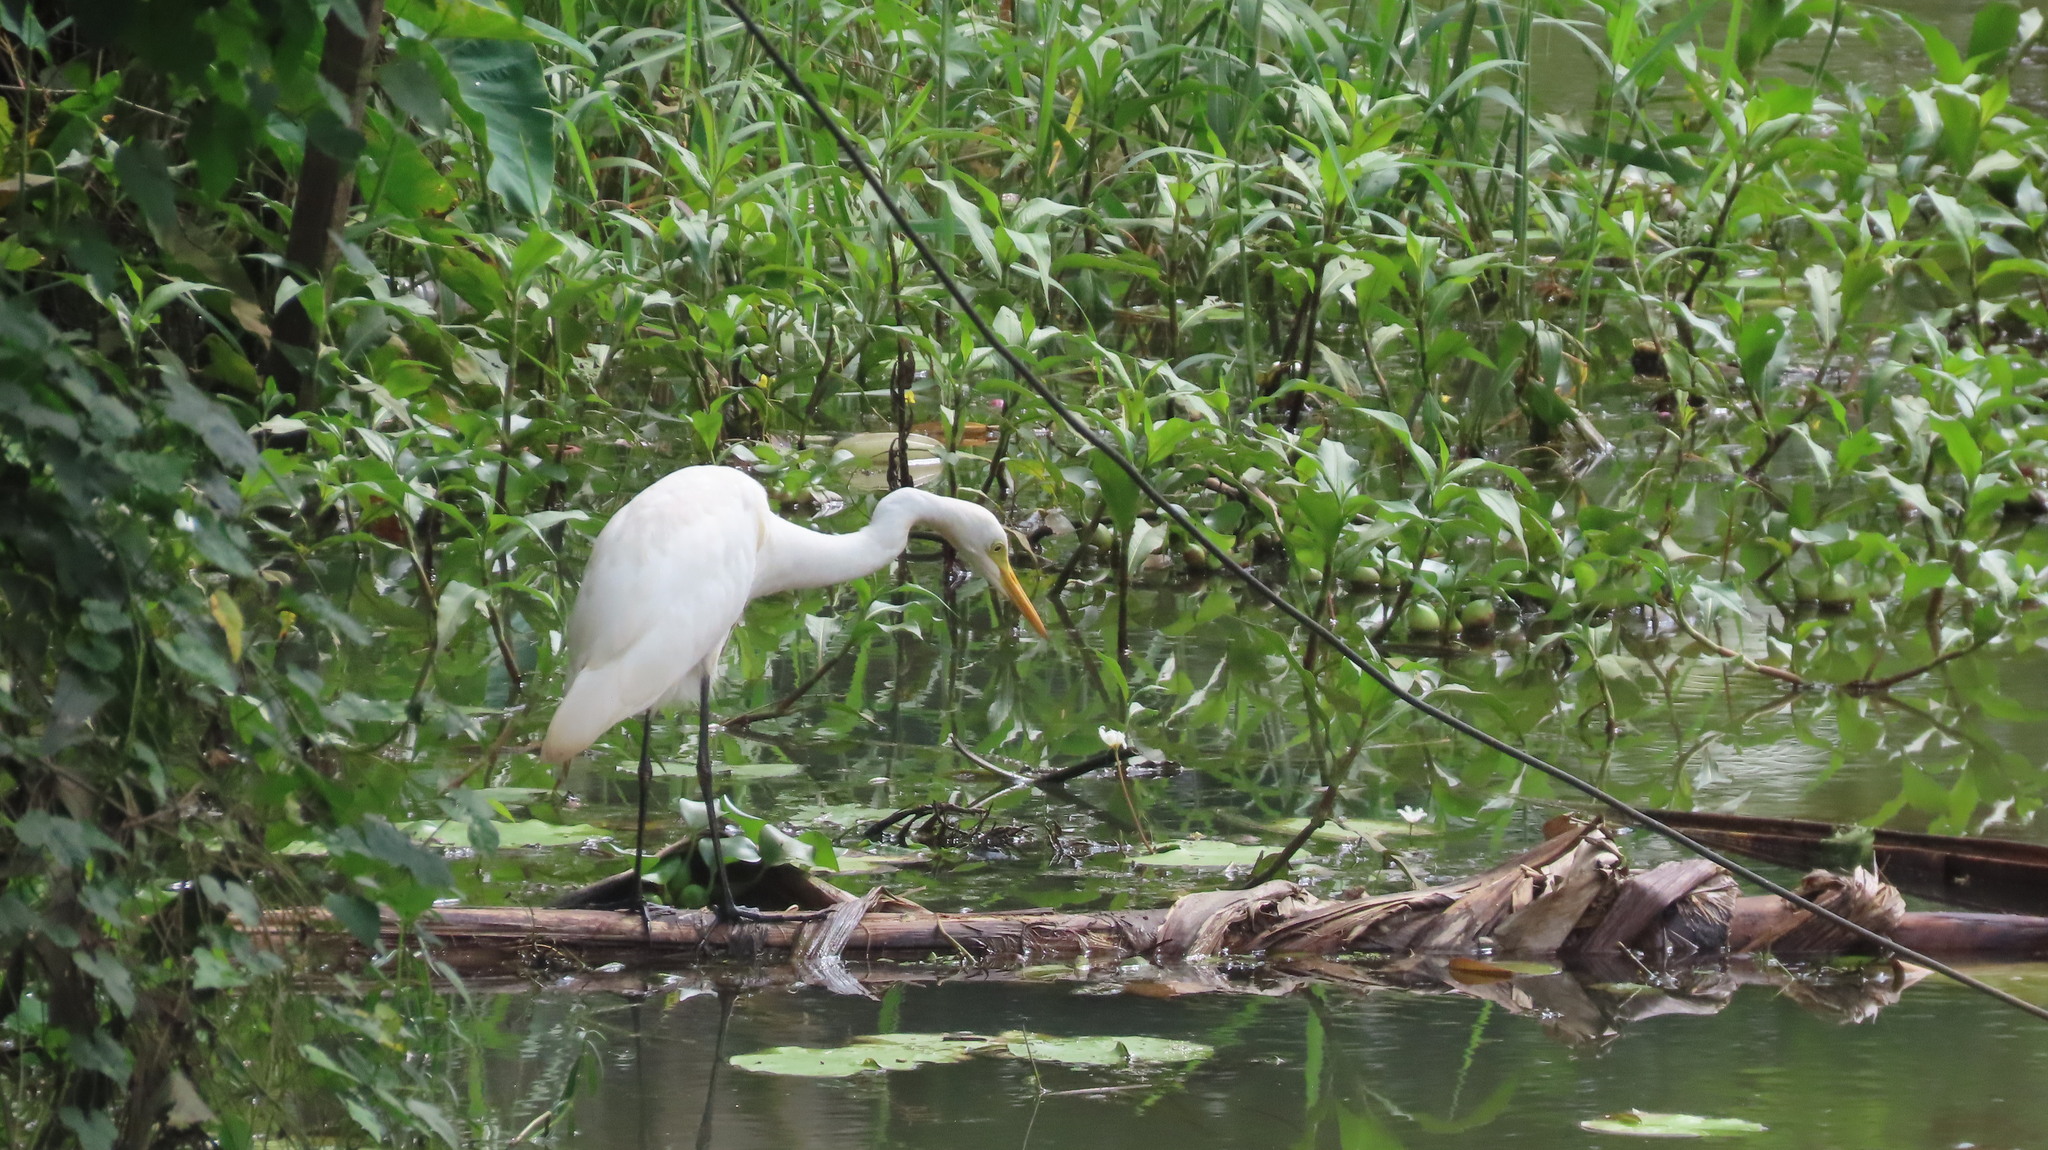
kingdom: Animalia
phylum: Chordata
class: Aves
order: Pelecaniformes
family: Ardeidae
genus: Egretta
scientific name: Egretta intermedia
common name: Intermediate egret
